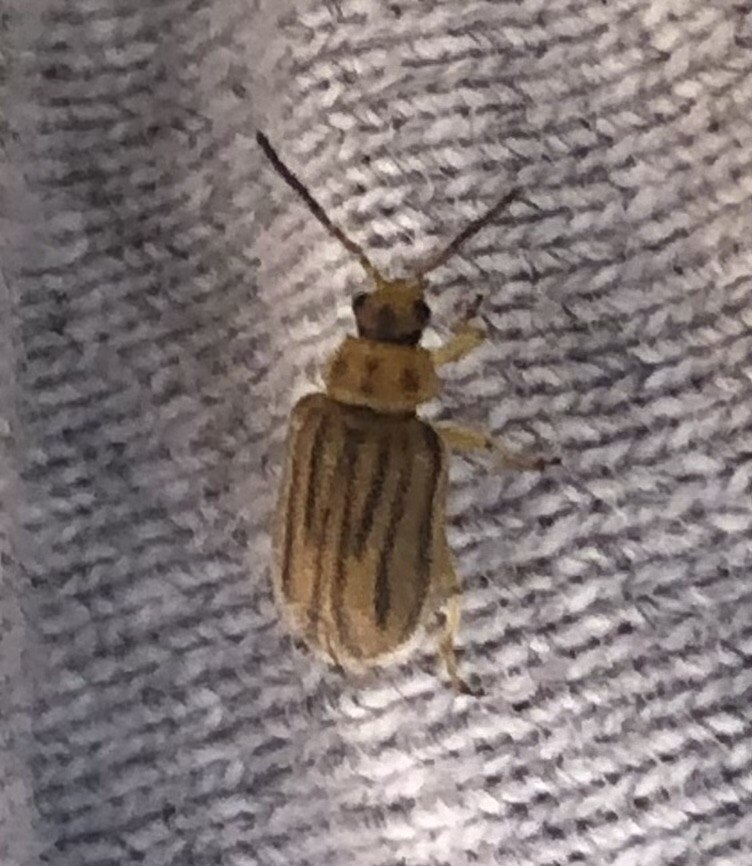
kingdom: Animalia
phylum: Arthropoda
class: Insecta
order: Coleoptera
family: Chrysomelidae
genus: Ophraella
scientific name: Ophraella communa
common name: Ragweed leaf beetle
